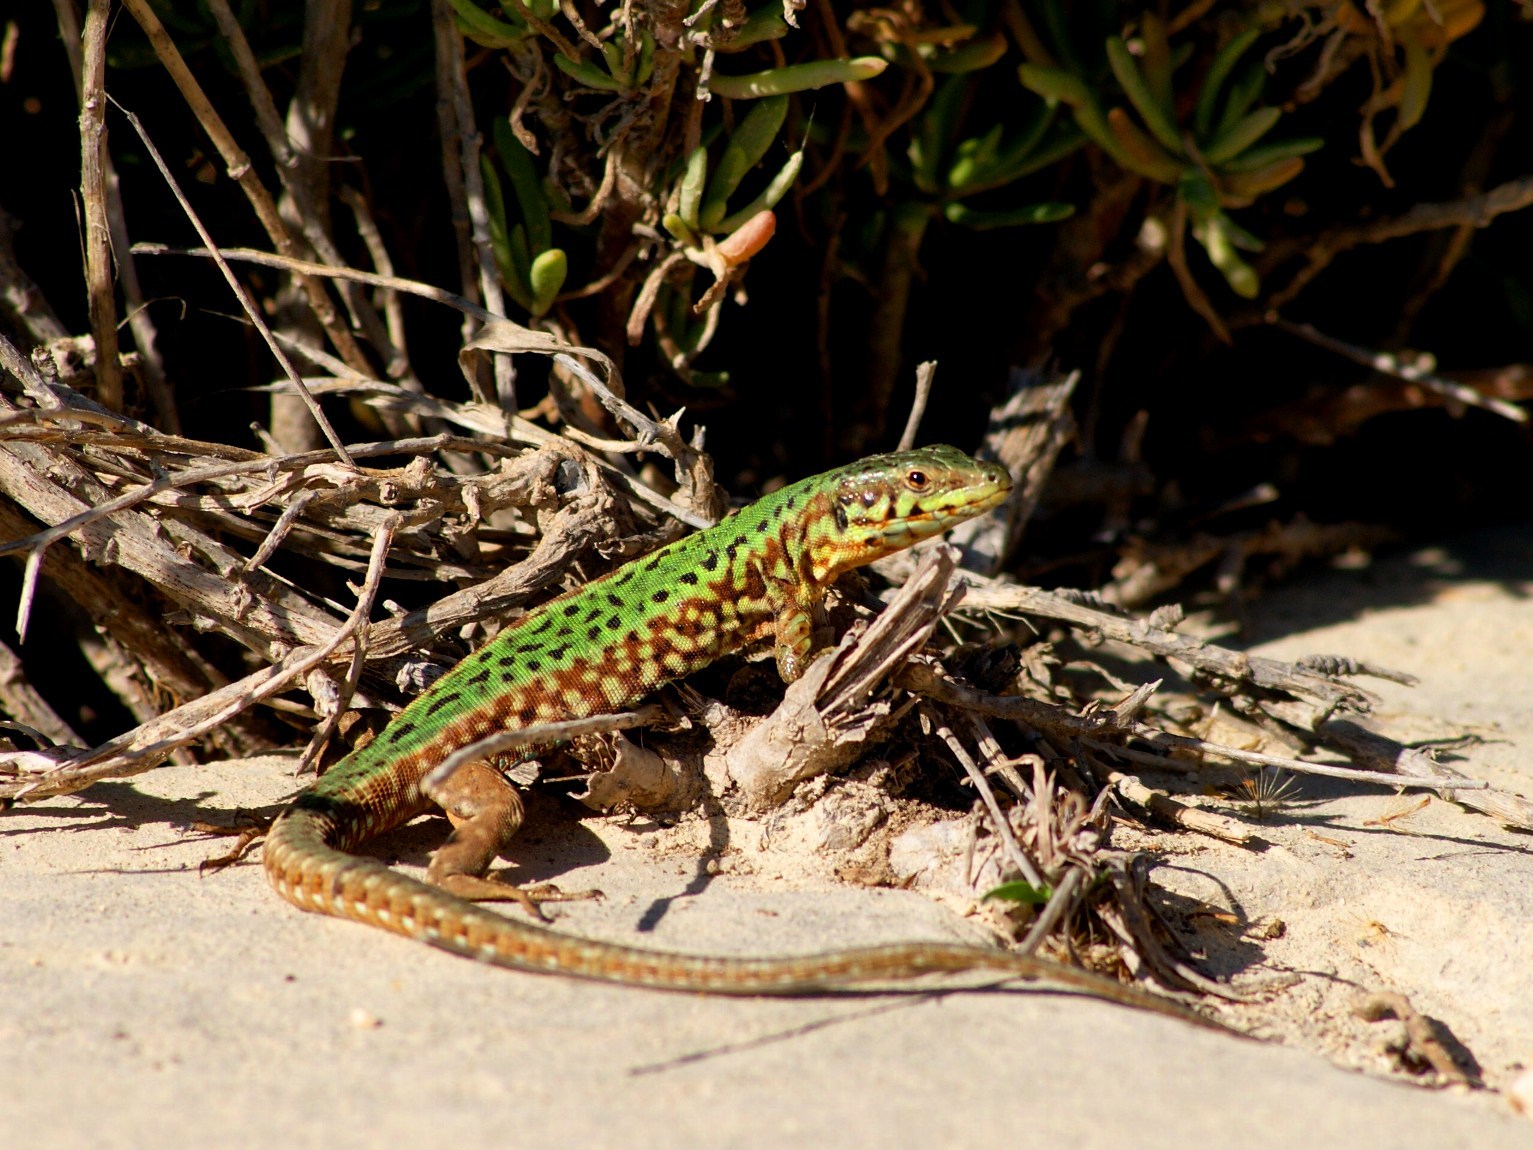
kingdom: Animalia
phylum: Chordata
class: Squamata
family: Lacertidae
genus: Podarcis
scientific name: Podarcis filfolensis
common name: Maltese wall lizard
